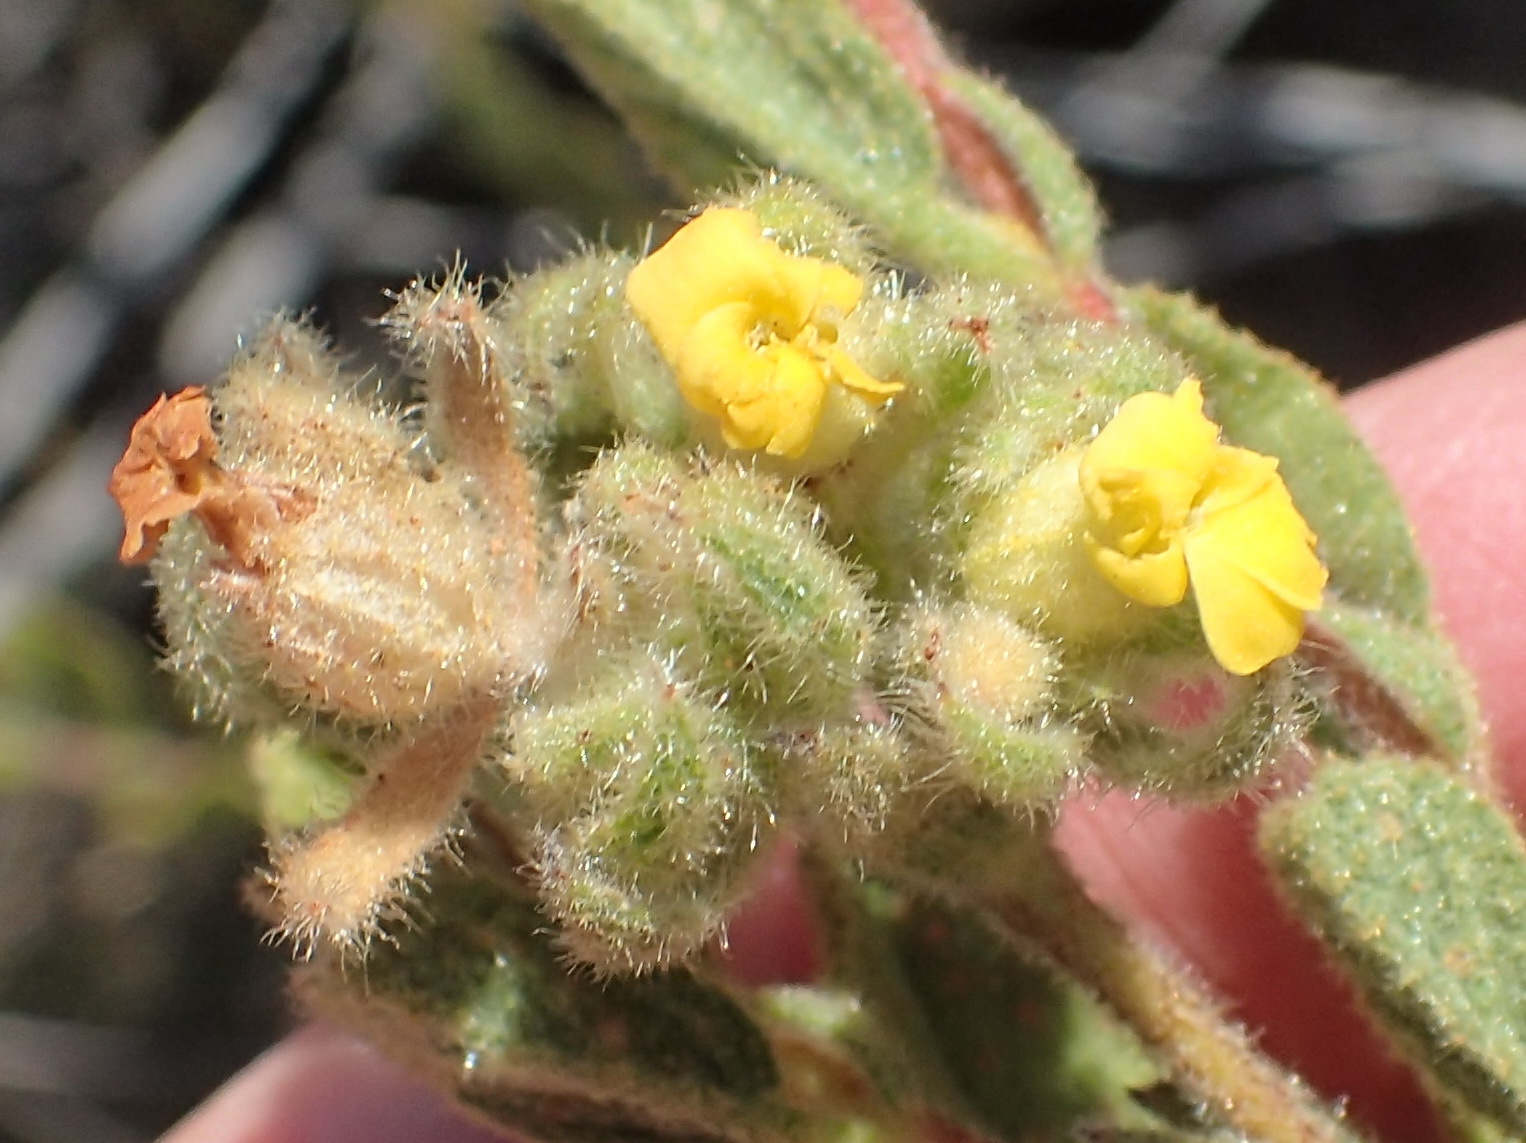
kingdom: Plantae
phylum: Tracheophyta
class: Magnoliopsida
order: Malvales
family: Malvaceae
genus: Hermannia
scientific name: Hermannia salviifolia
